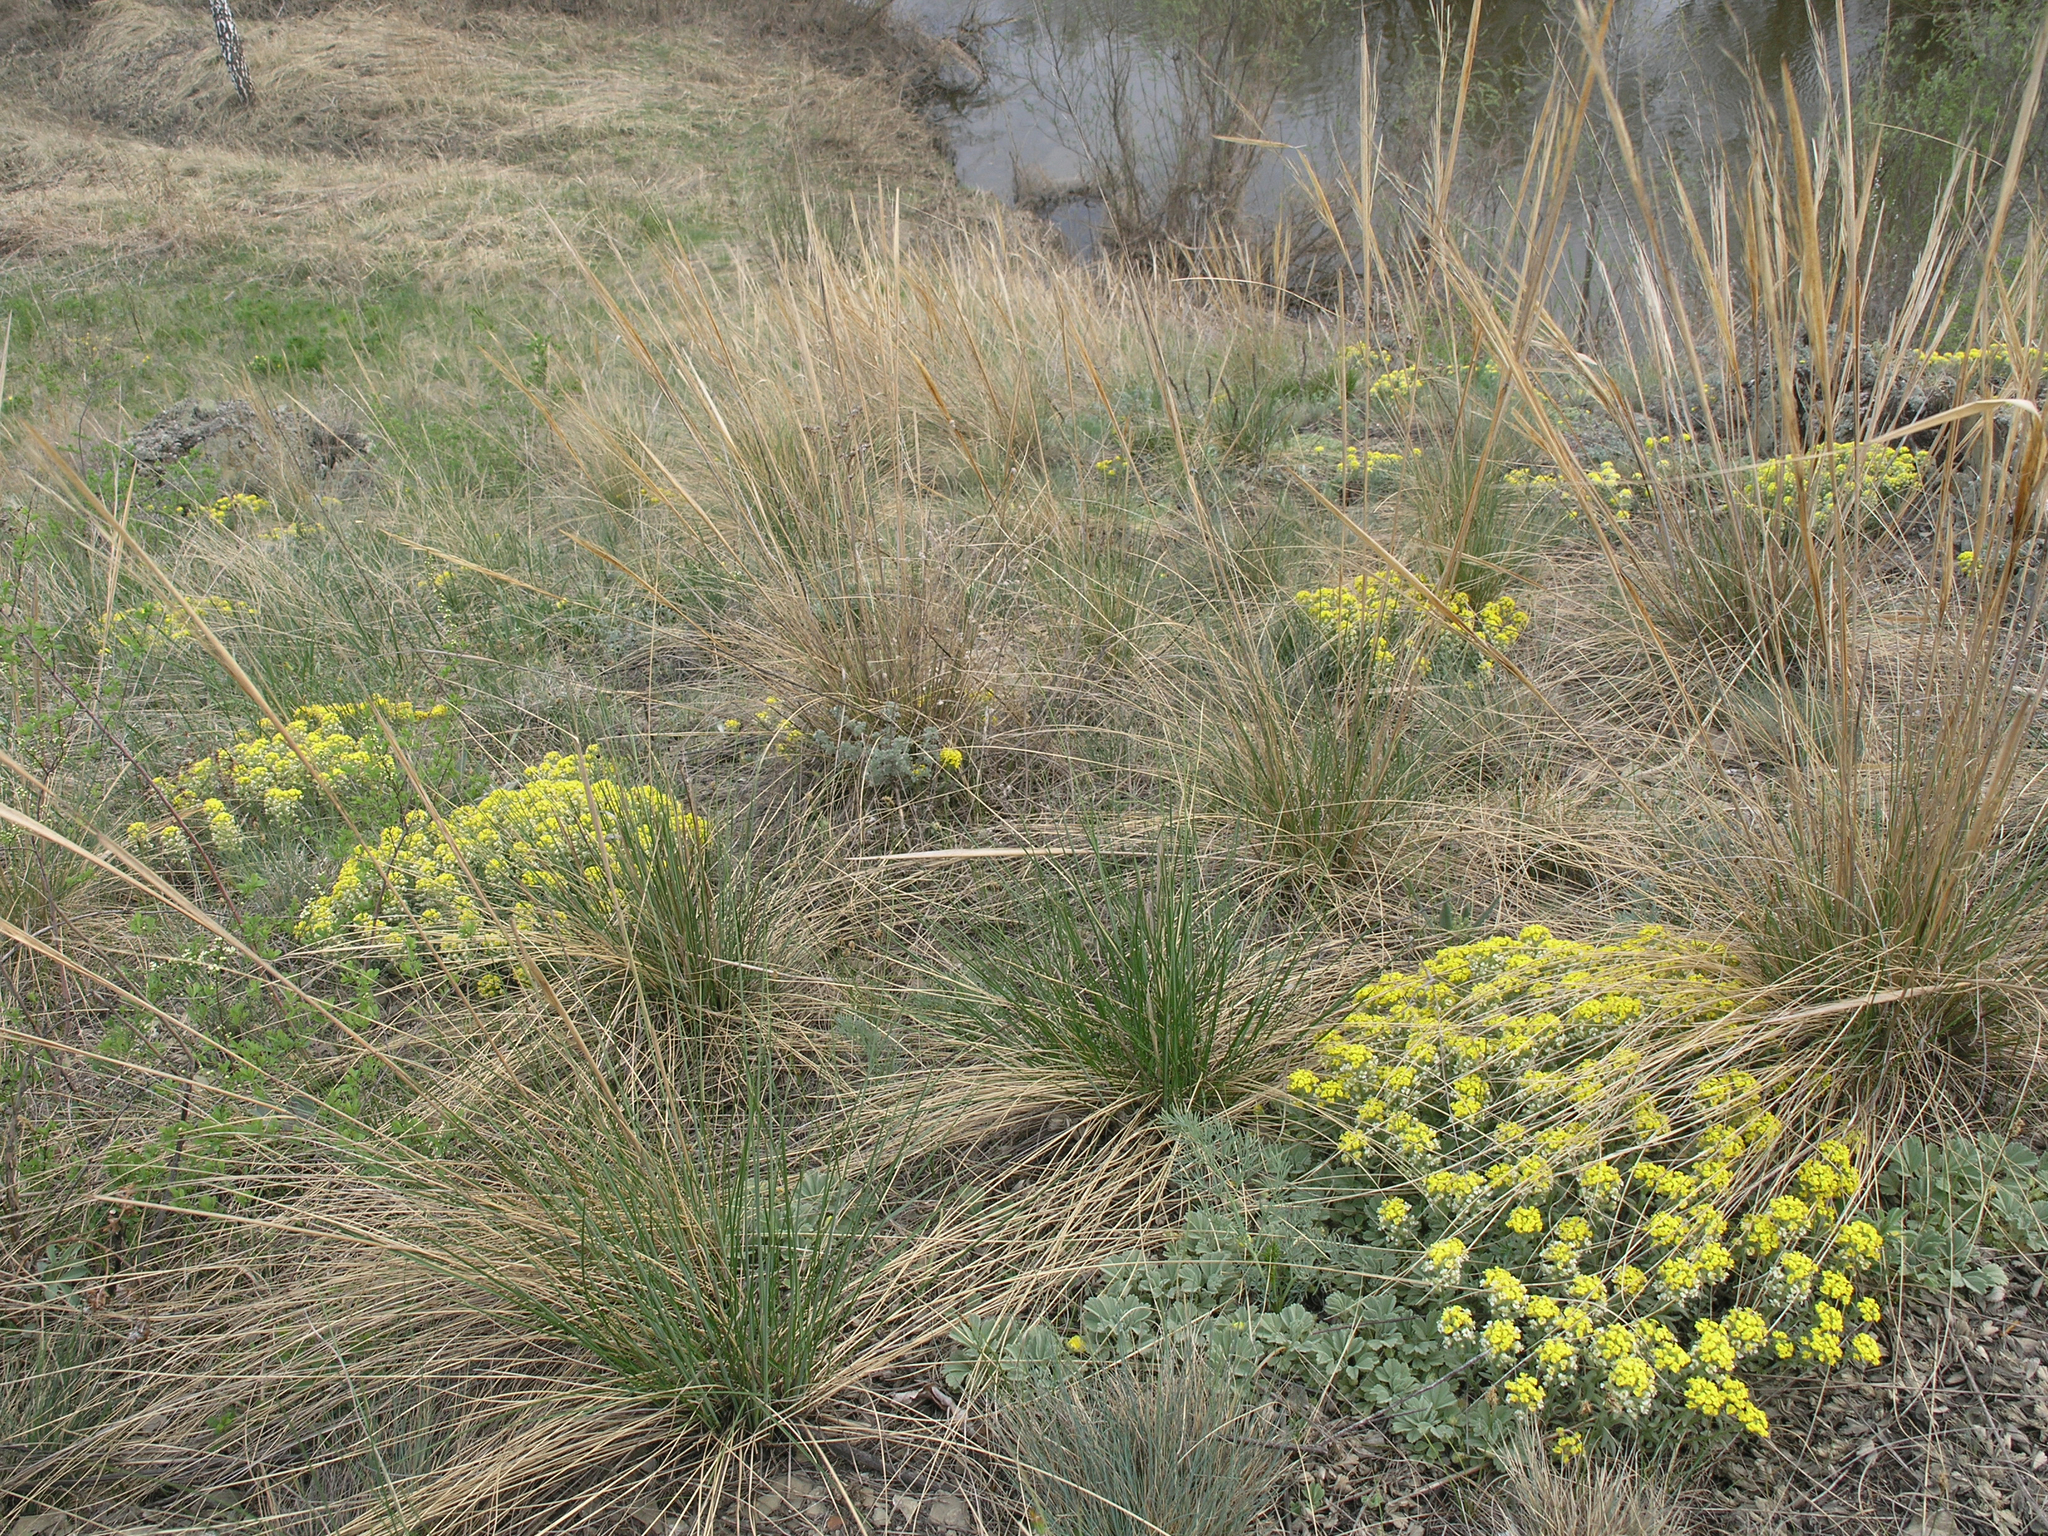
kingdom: Plantae
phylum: Tracheophyta
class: Magnoliopsida
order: Brassicales
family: Brassicaceae
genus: Alyssum
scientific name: Alyssum lenense
